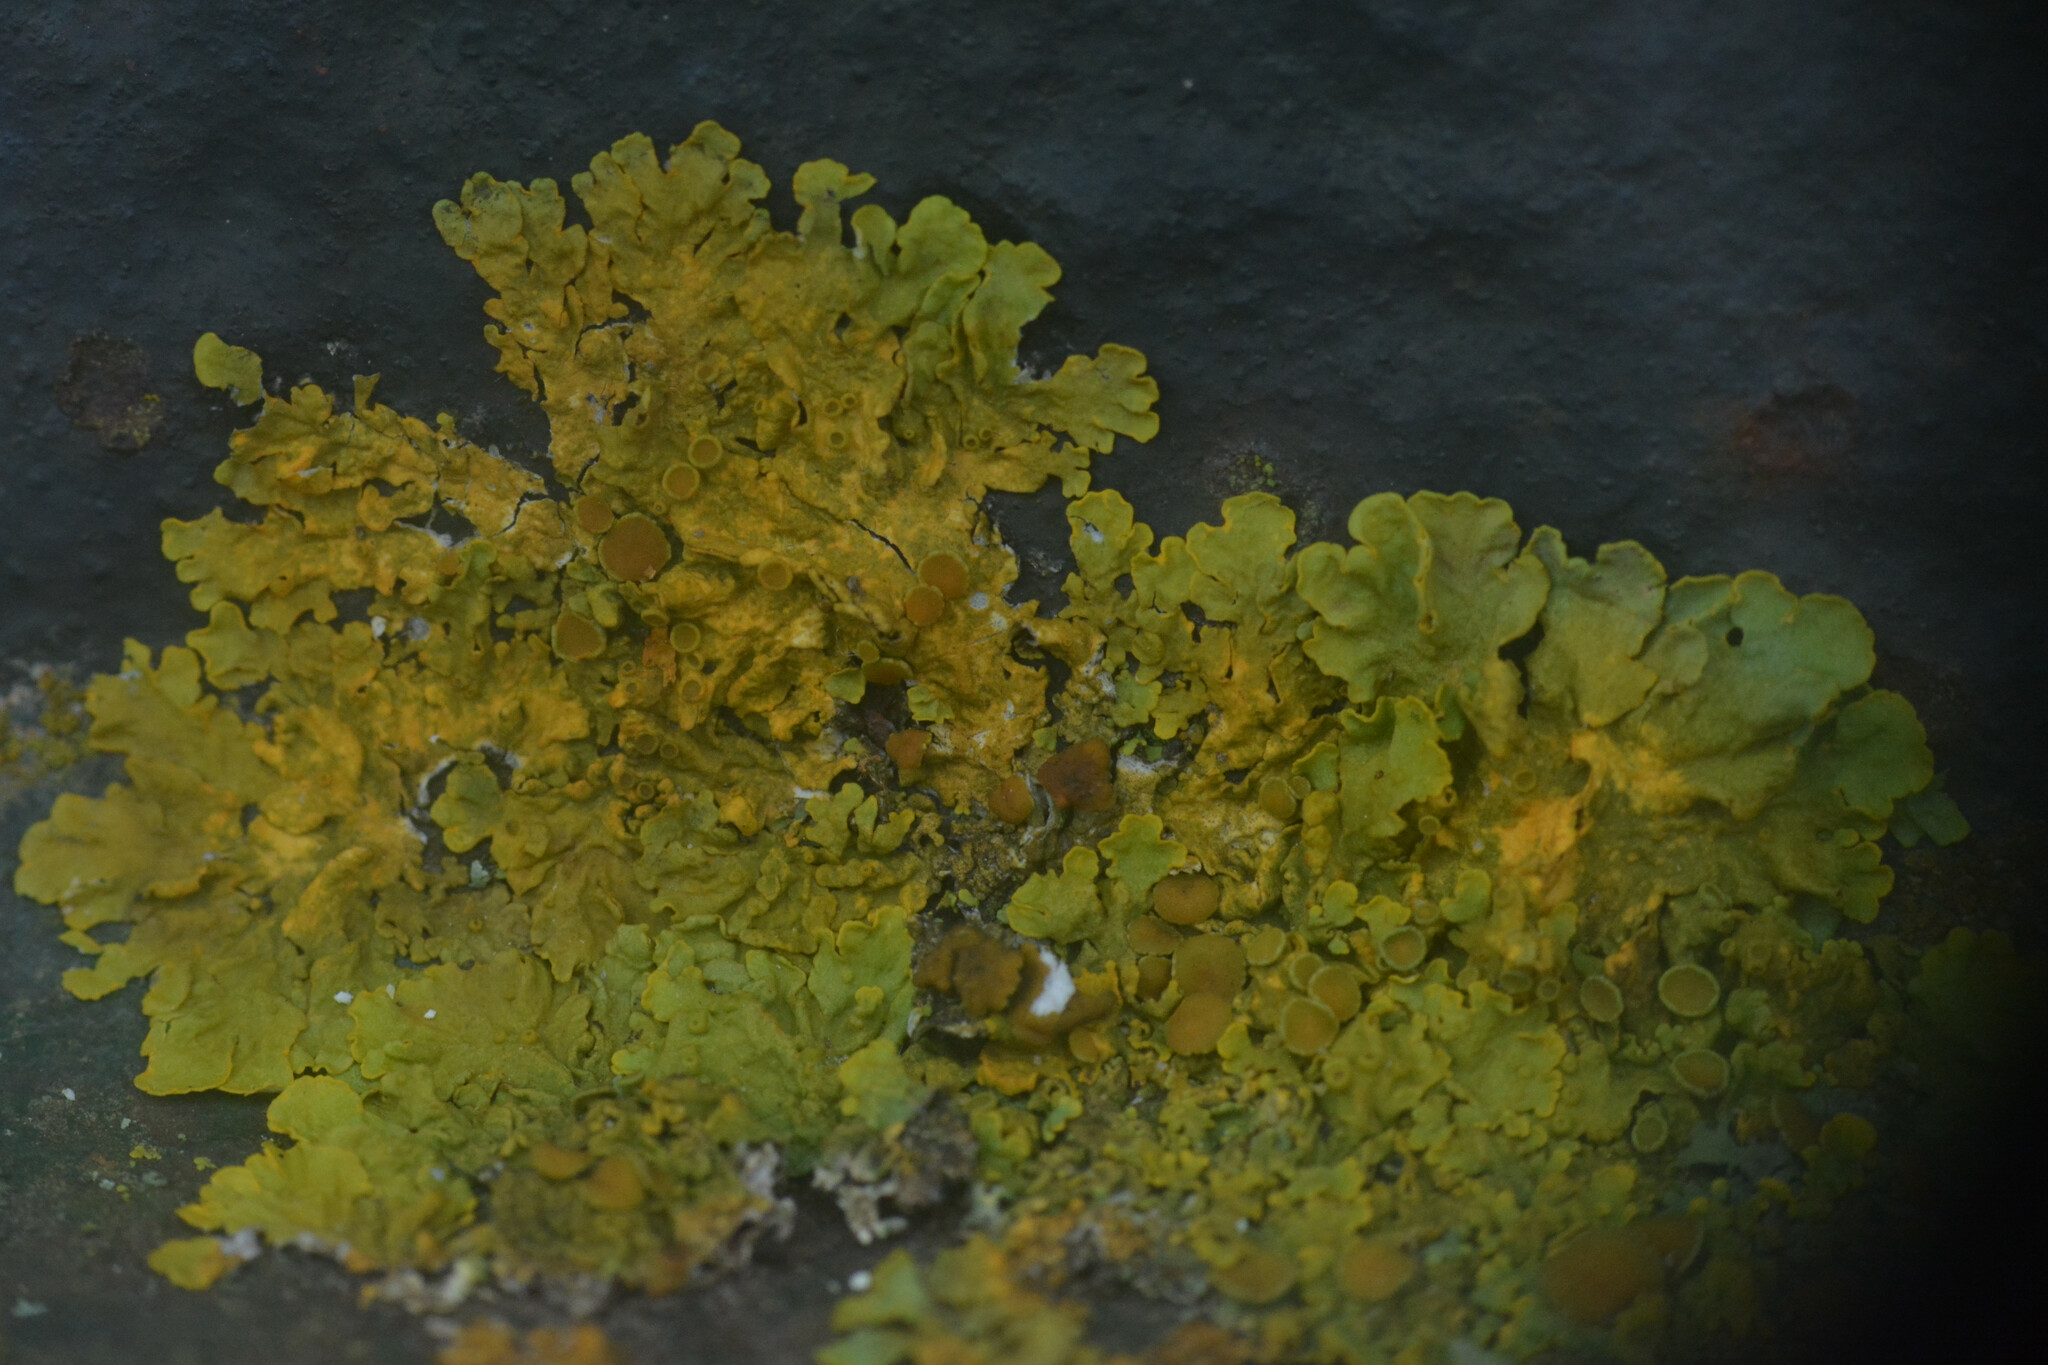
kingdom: Fungi
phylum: Ascomycota
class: Lecanoromycetes
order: Teloschistales
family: Teloschistaceae
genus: Xanthoria
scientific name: Xanthoria parietina
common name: Common orange lichen
